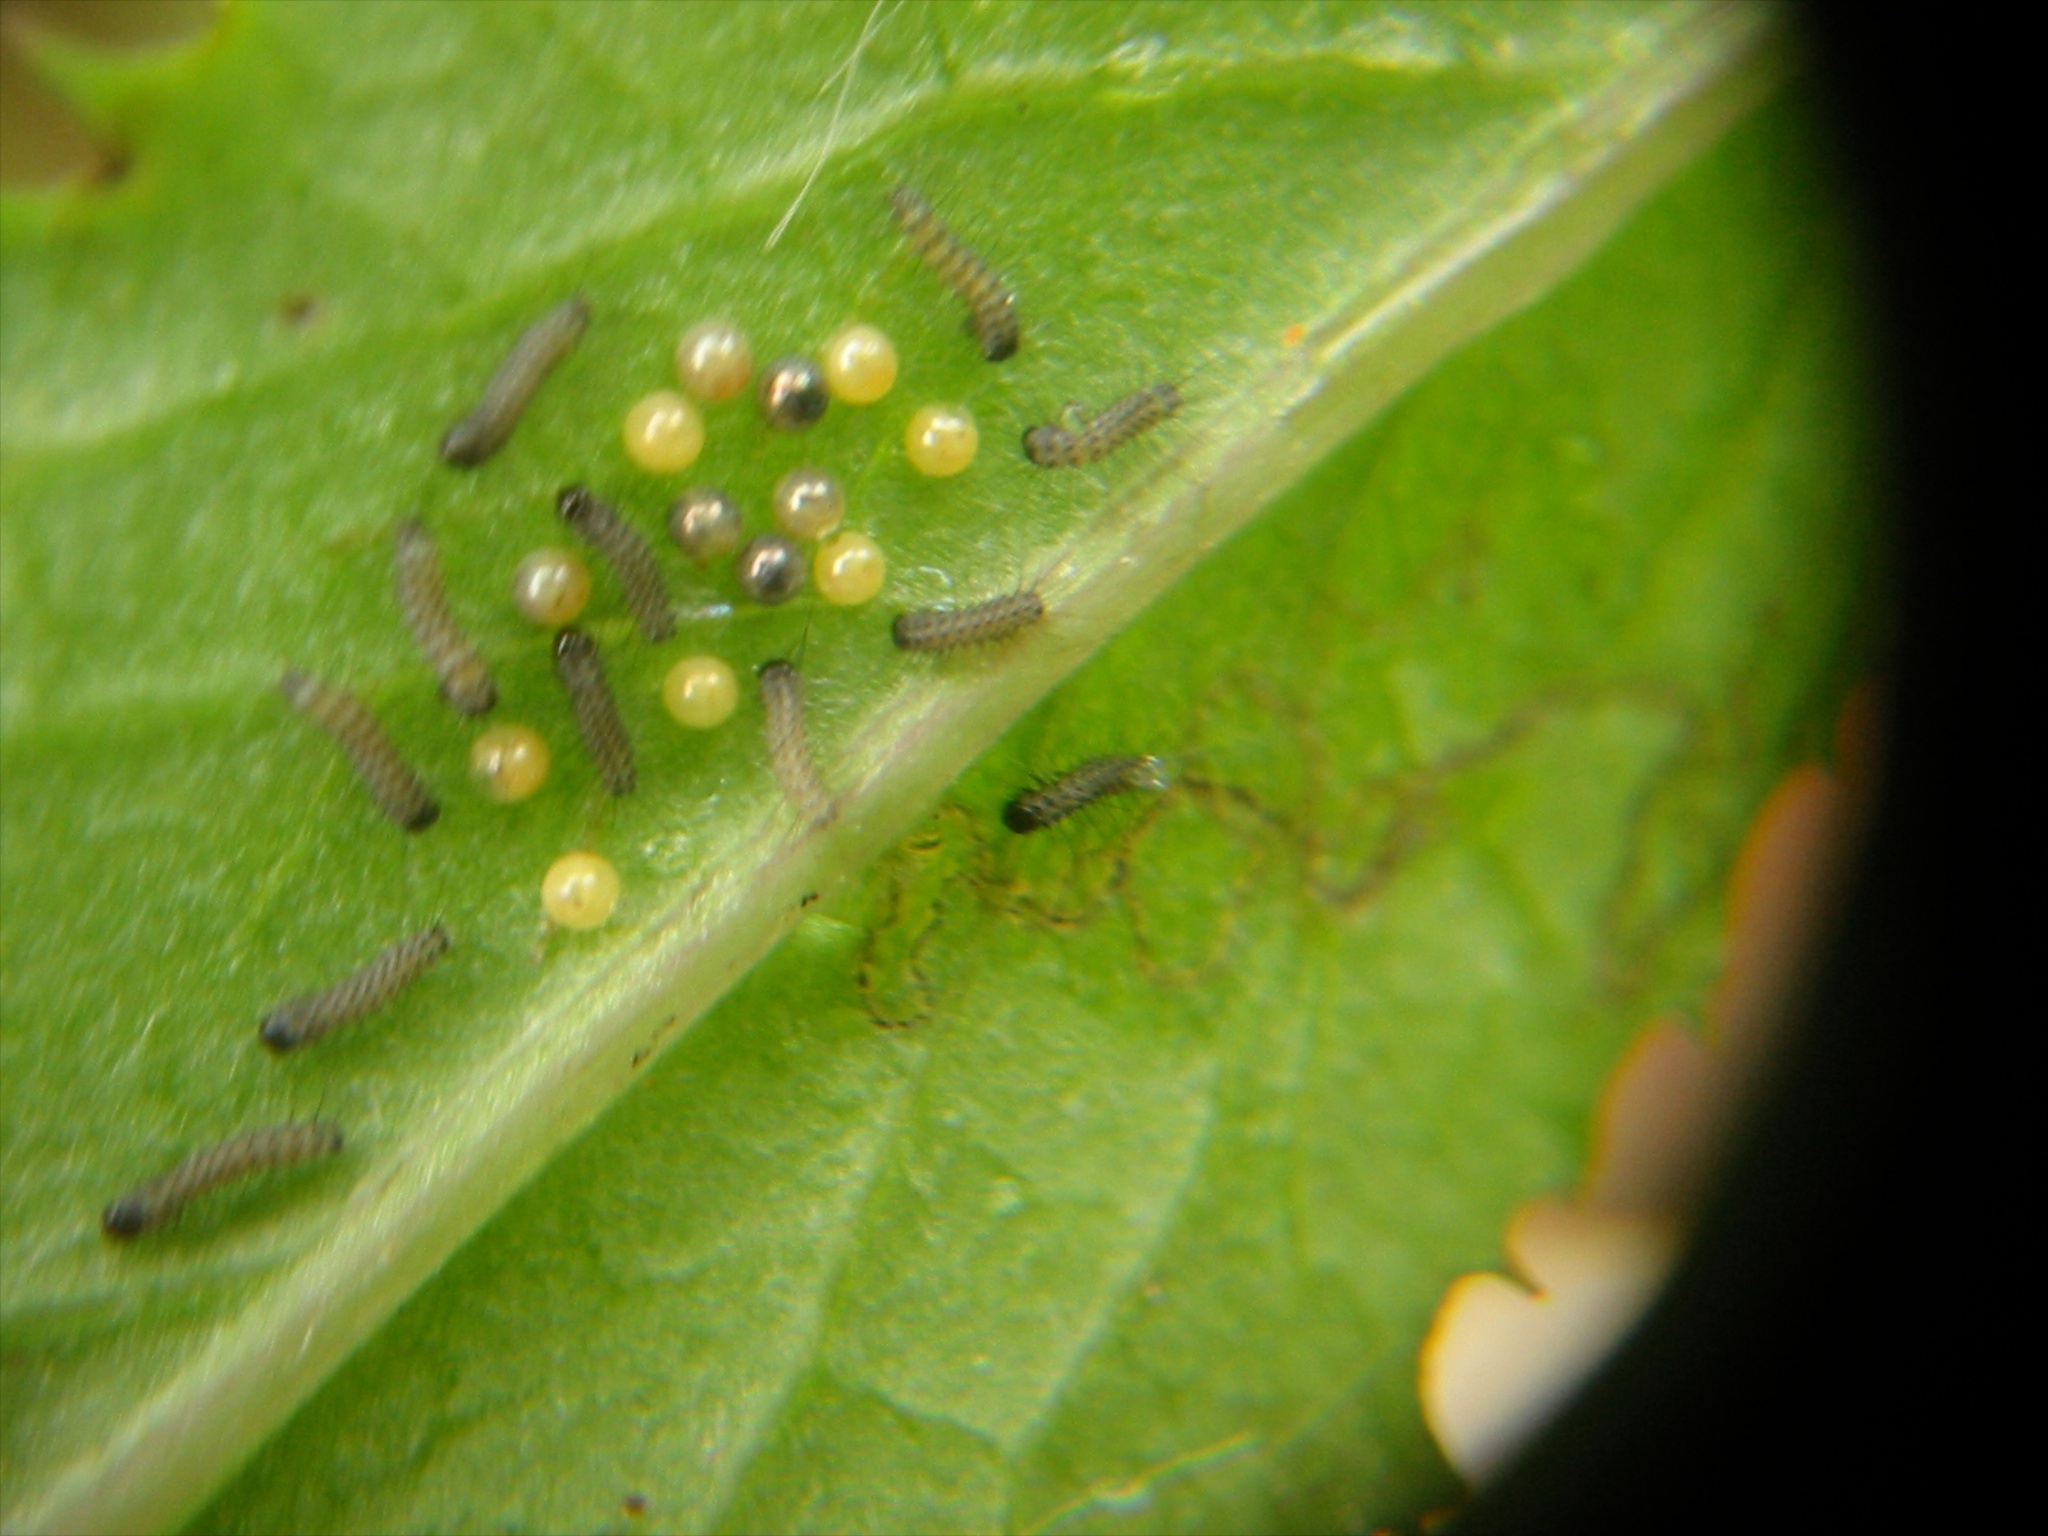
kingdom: Animalia
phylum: Arthropoda
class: Insecta
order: Lepidoptera
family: Erebidae
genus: Nyctemera
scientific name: Nyctemera annulatum
